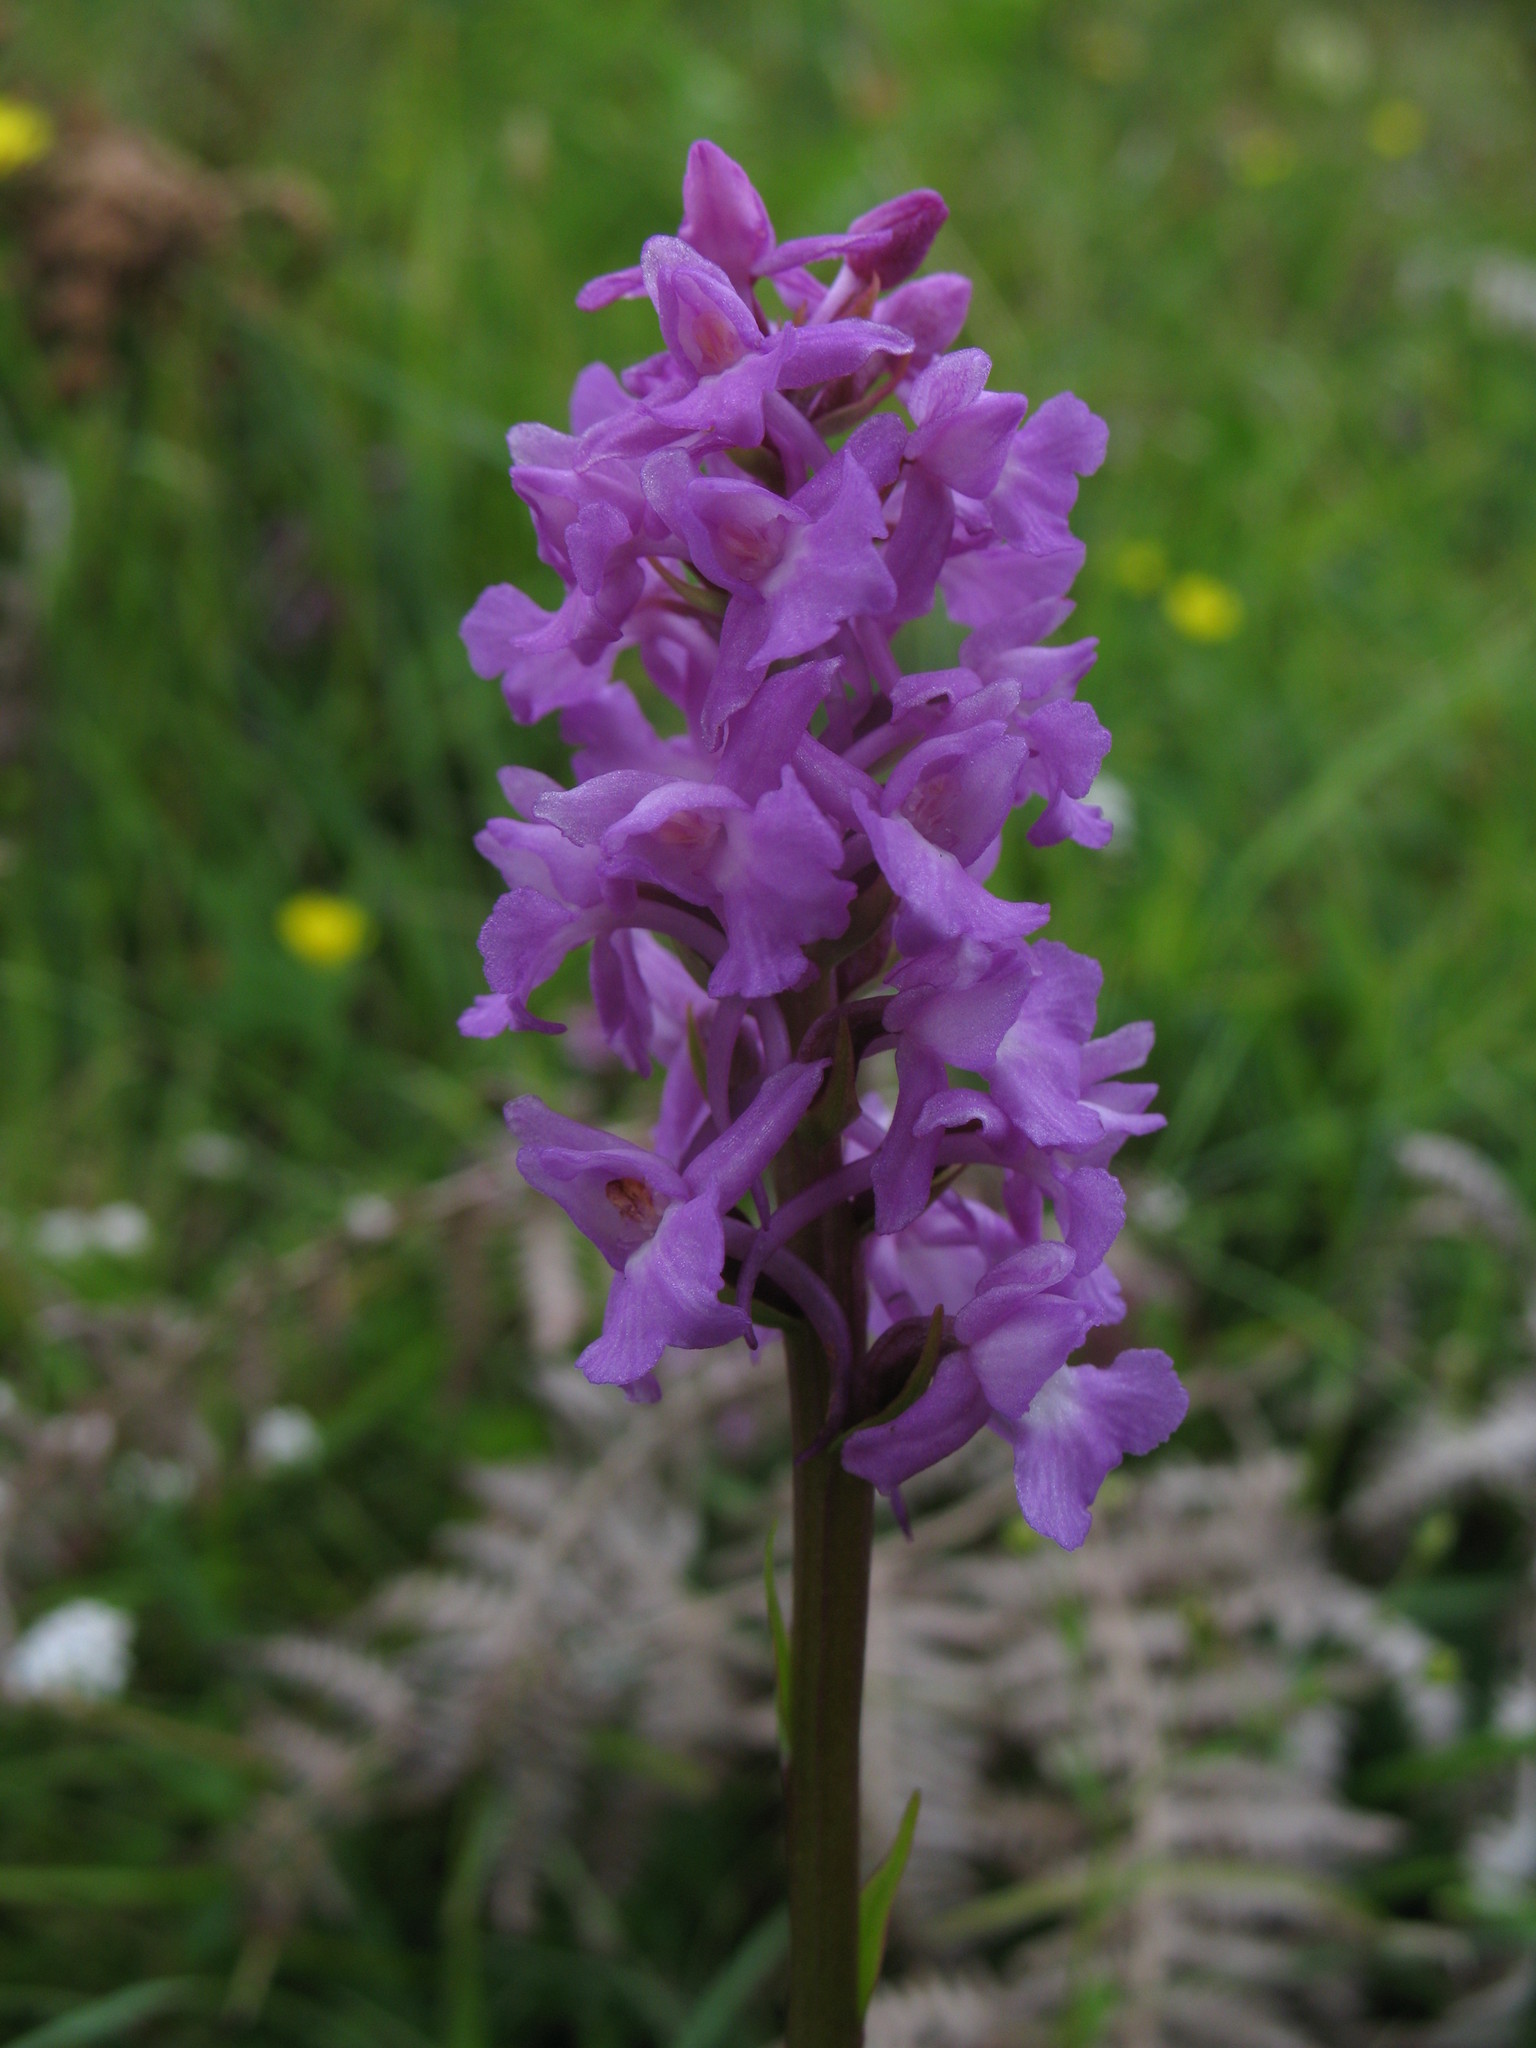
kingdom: Plantae
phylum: Tracheophyta
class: Liliopsida
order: Asparagales
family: Orchidaceae
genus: Gymnadenia
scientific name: Gymnadenia conopsea
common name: Fragrant orchid
